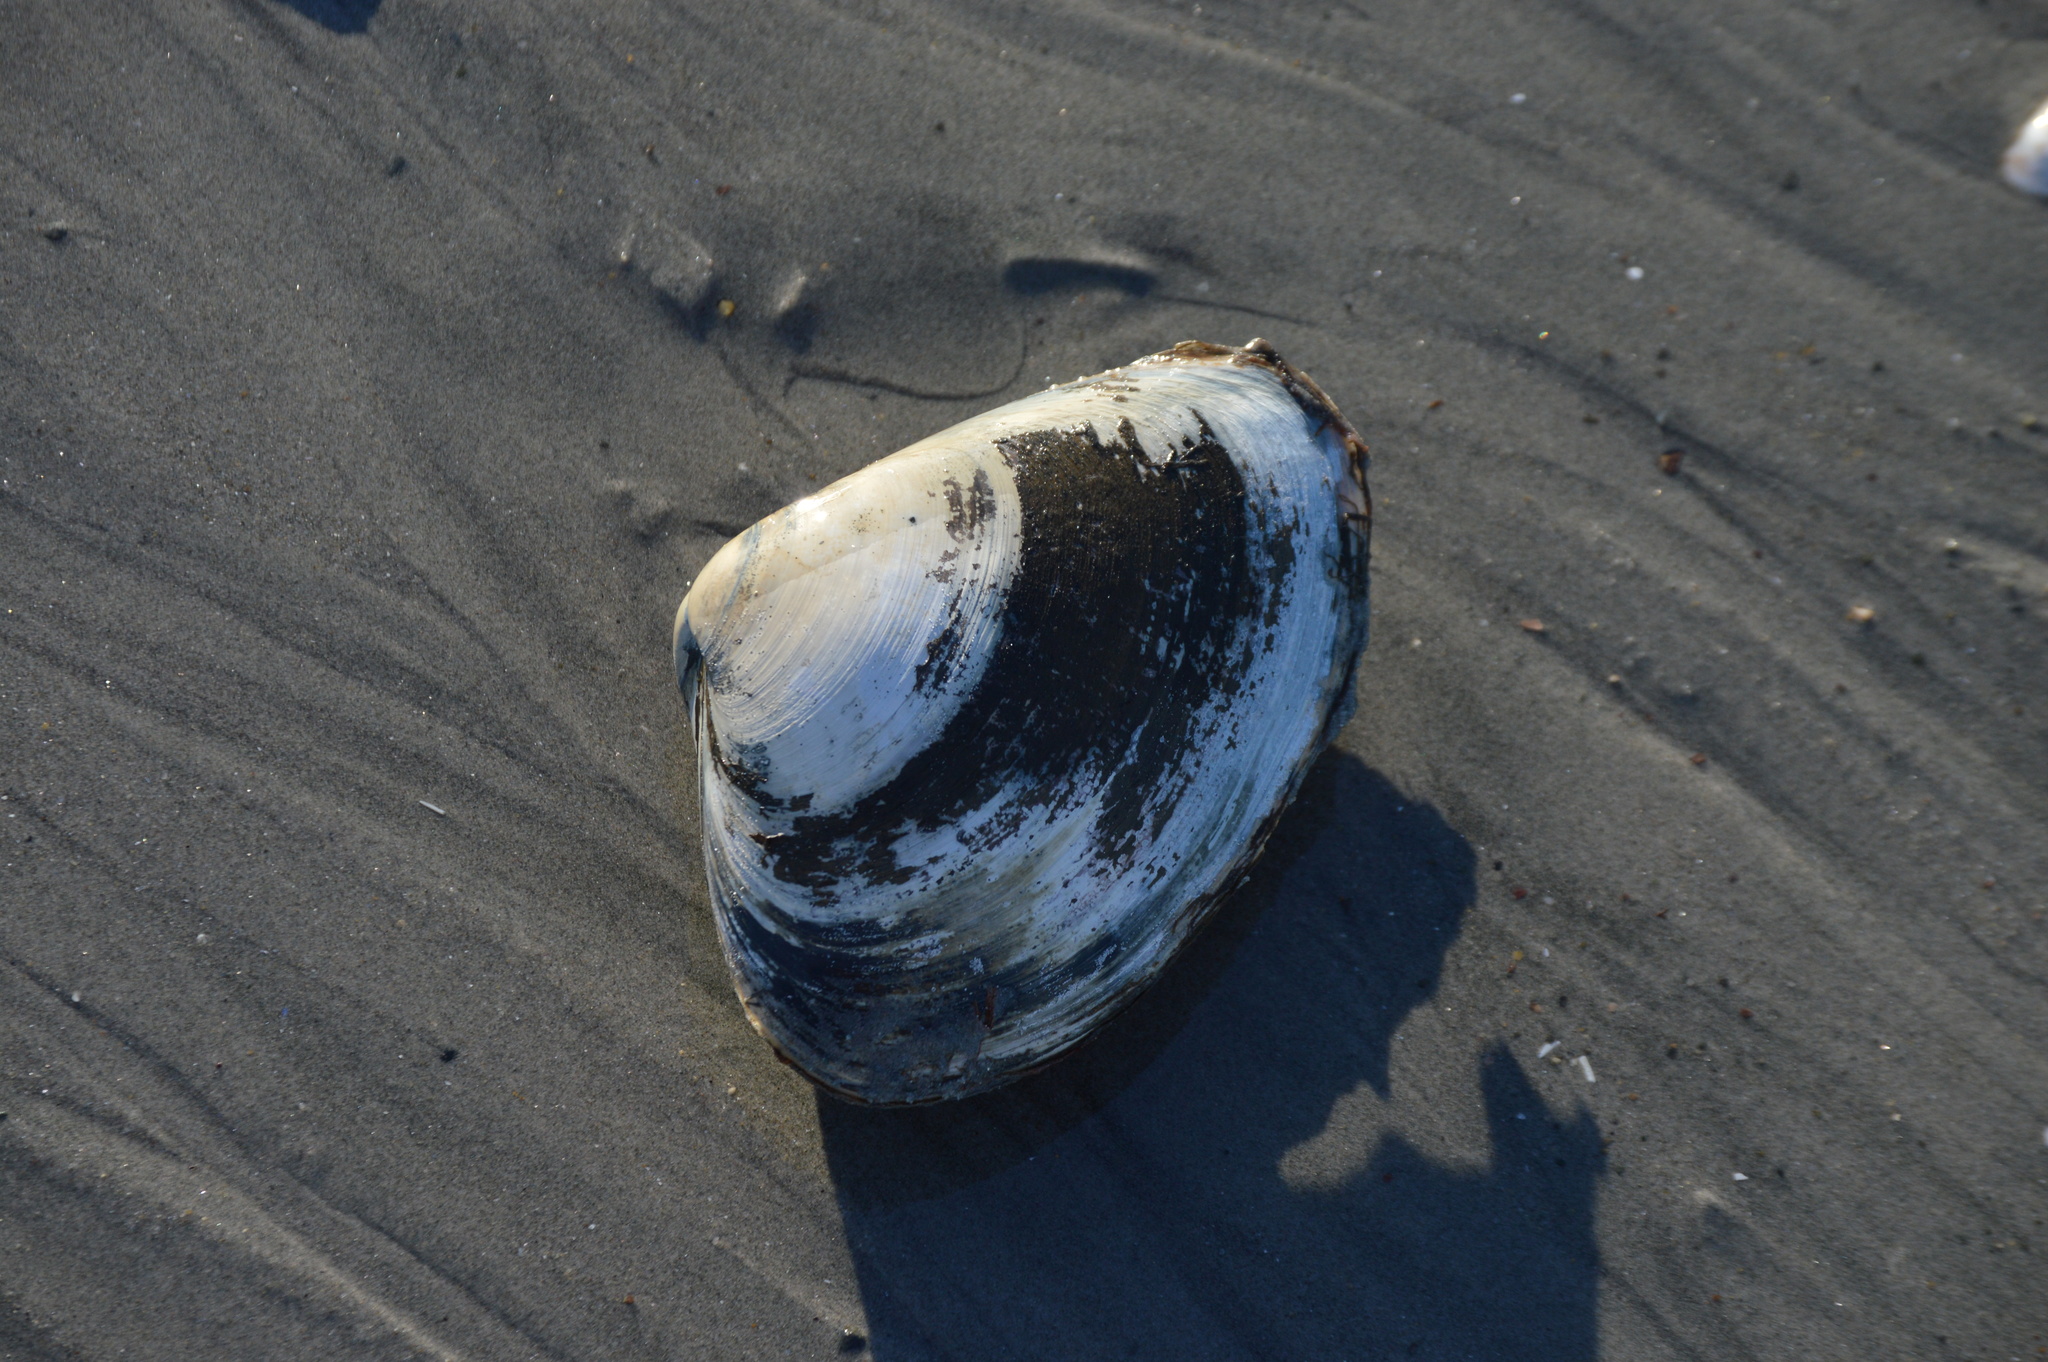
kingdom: Animalia
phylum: Mollusca
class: Bivalvia
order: Venerida
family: Mactridae
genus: Spisula
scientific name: Spisula solidissima
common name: Atlantic surf clam
